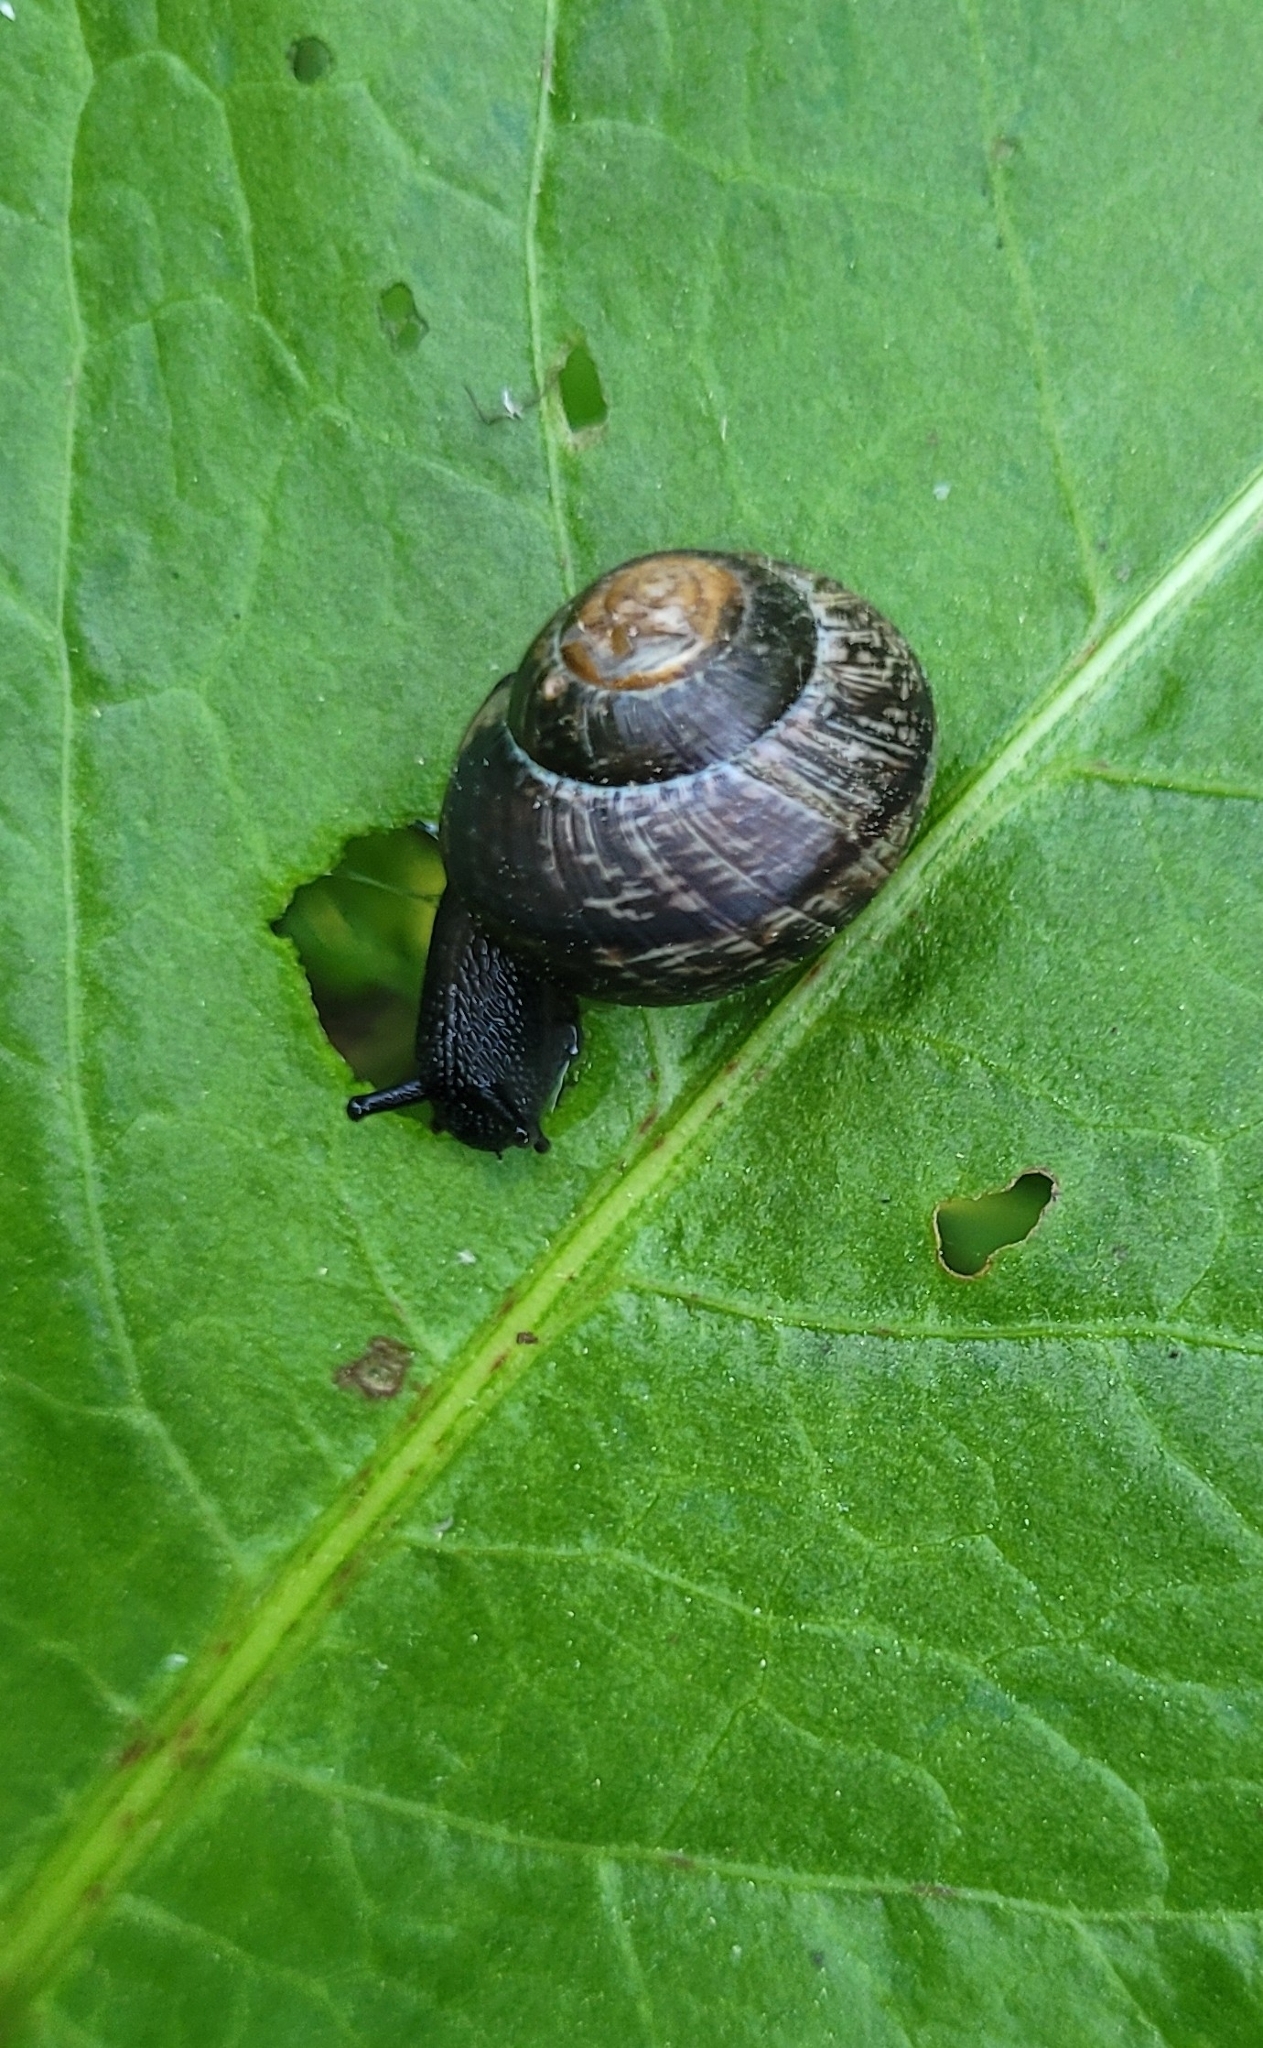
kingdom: Animalia
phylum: Mollusca
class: Gastropoda
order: Stylommatophora
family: Helicidae
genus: Arianta
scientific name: Arianta arbustorum
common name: Copse snail
